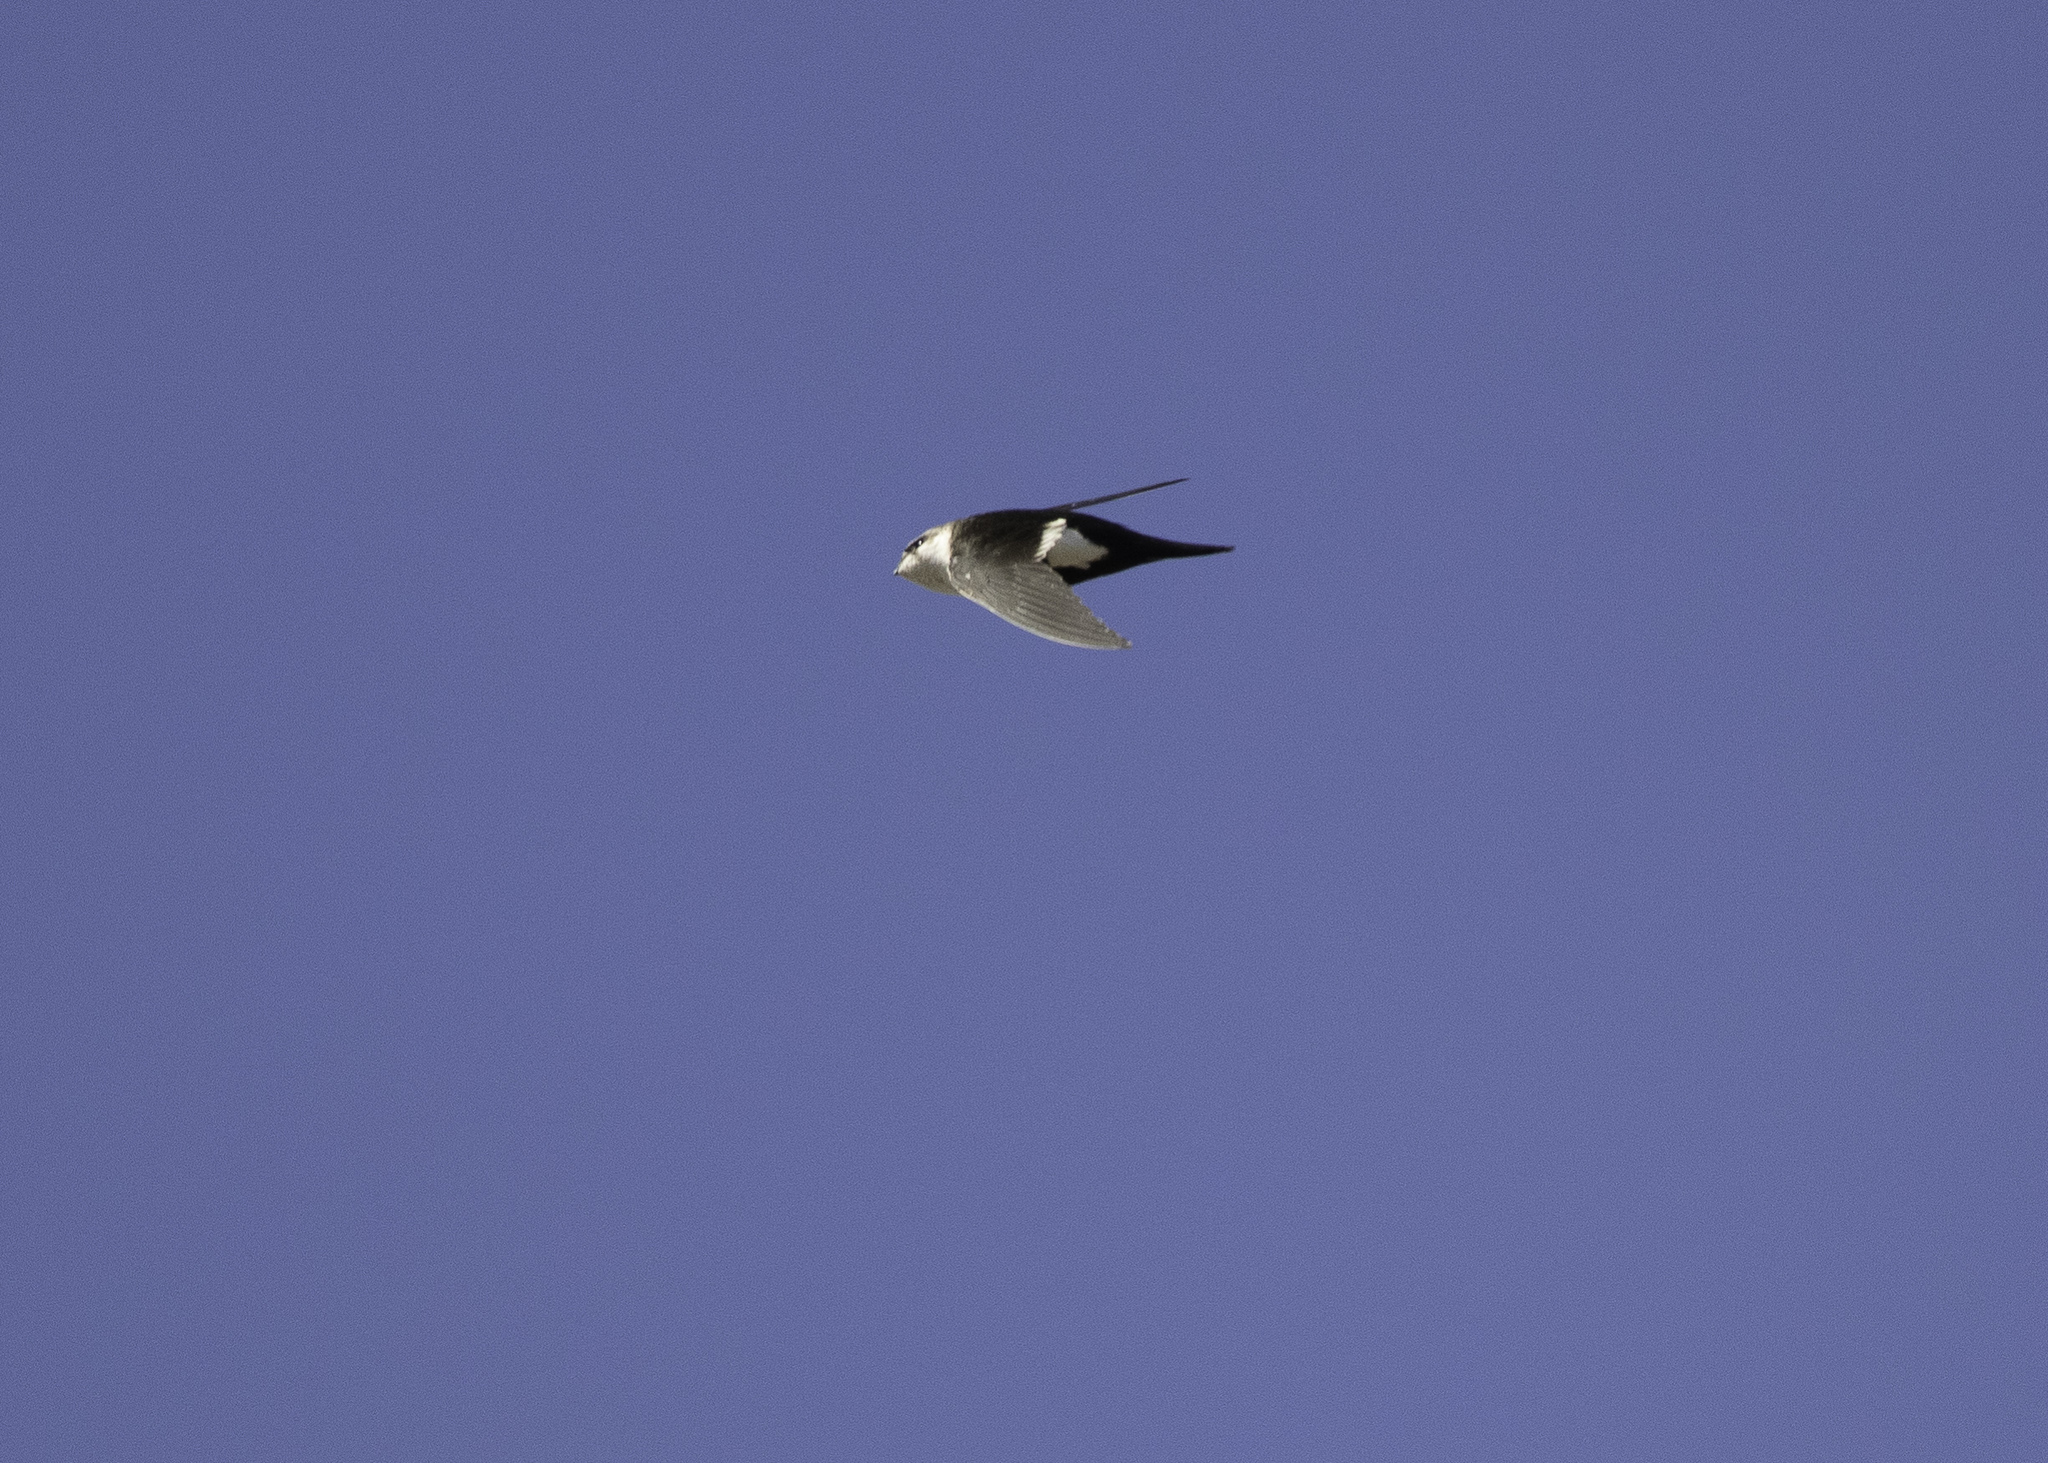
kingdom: Animalia
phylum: Chordata
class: Aves
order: Apodiformes
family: Apodidae
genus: Aeronautes
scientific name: Aeronautes saxatalis
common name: White-throated swift
